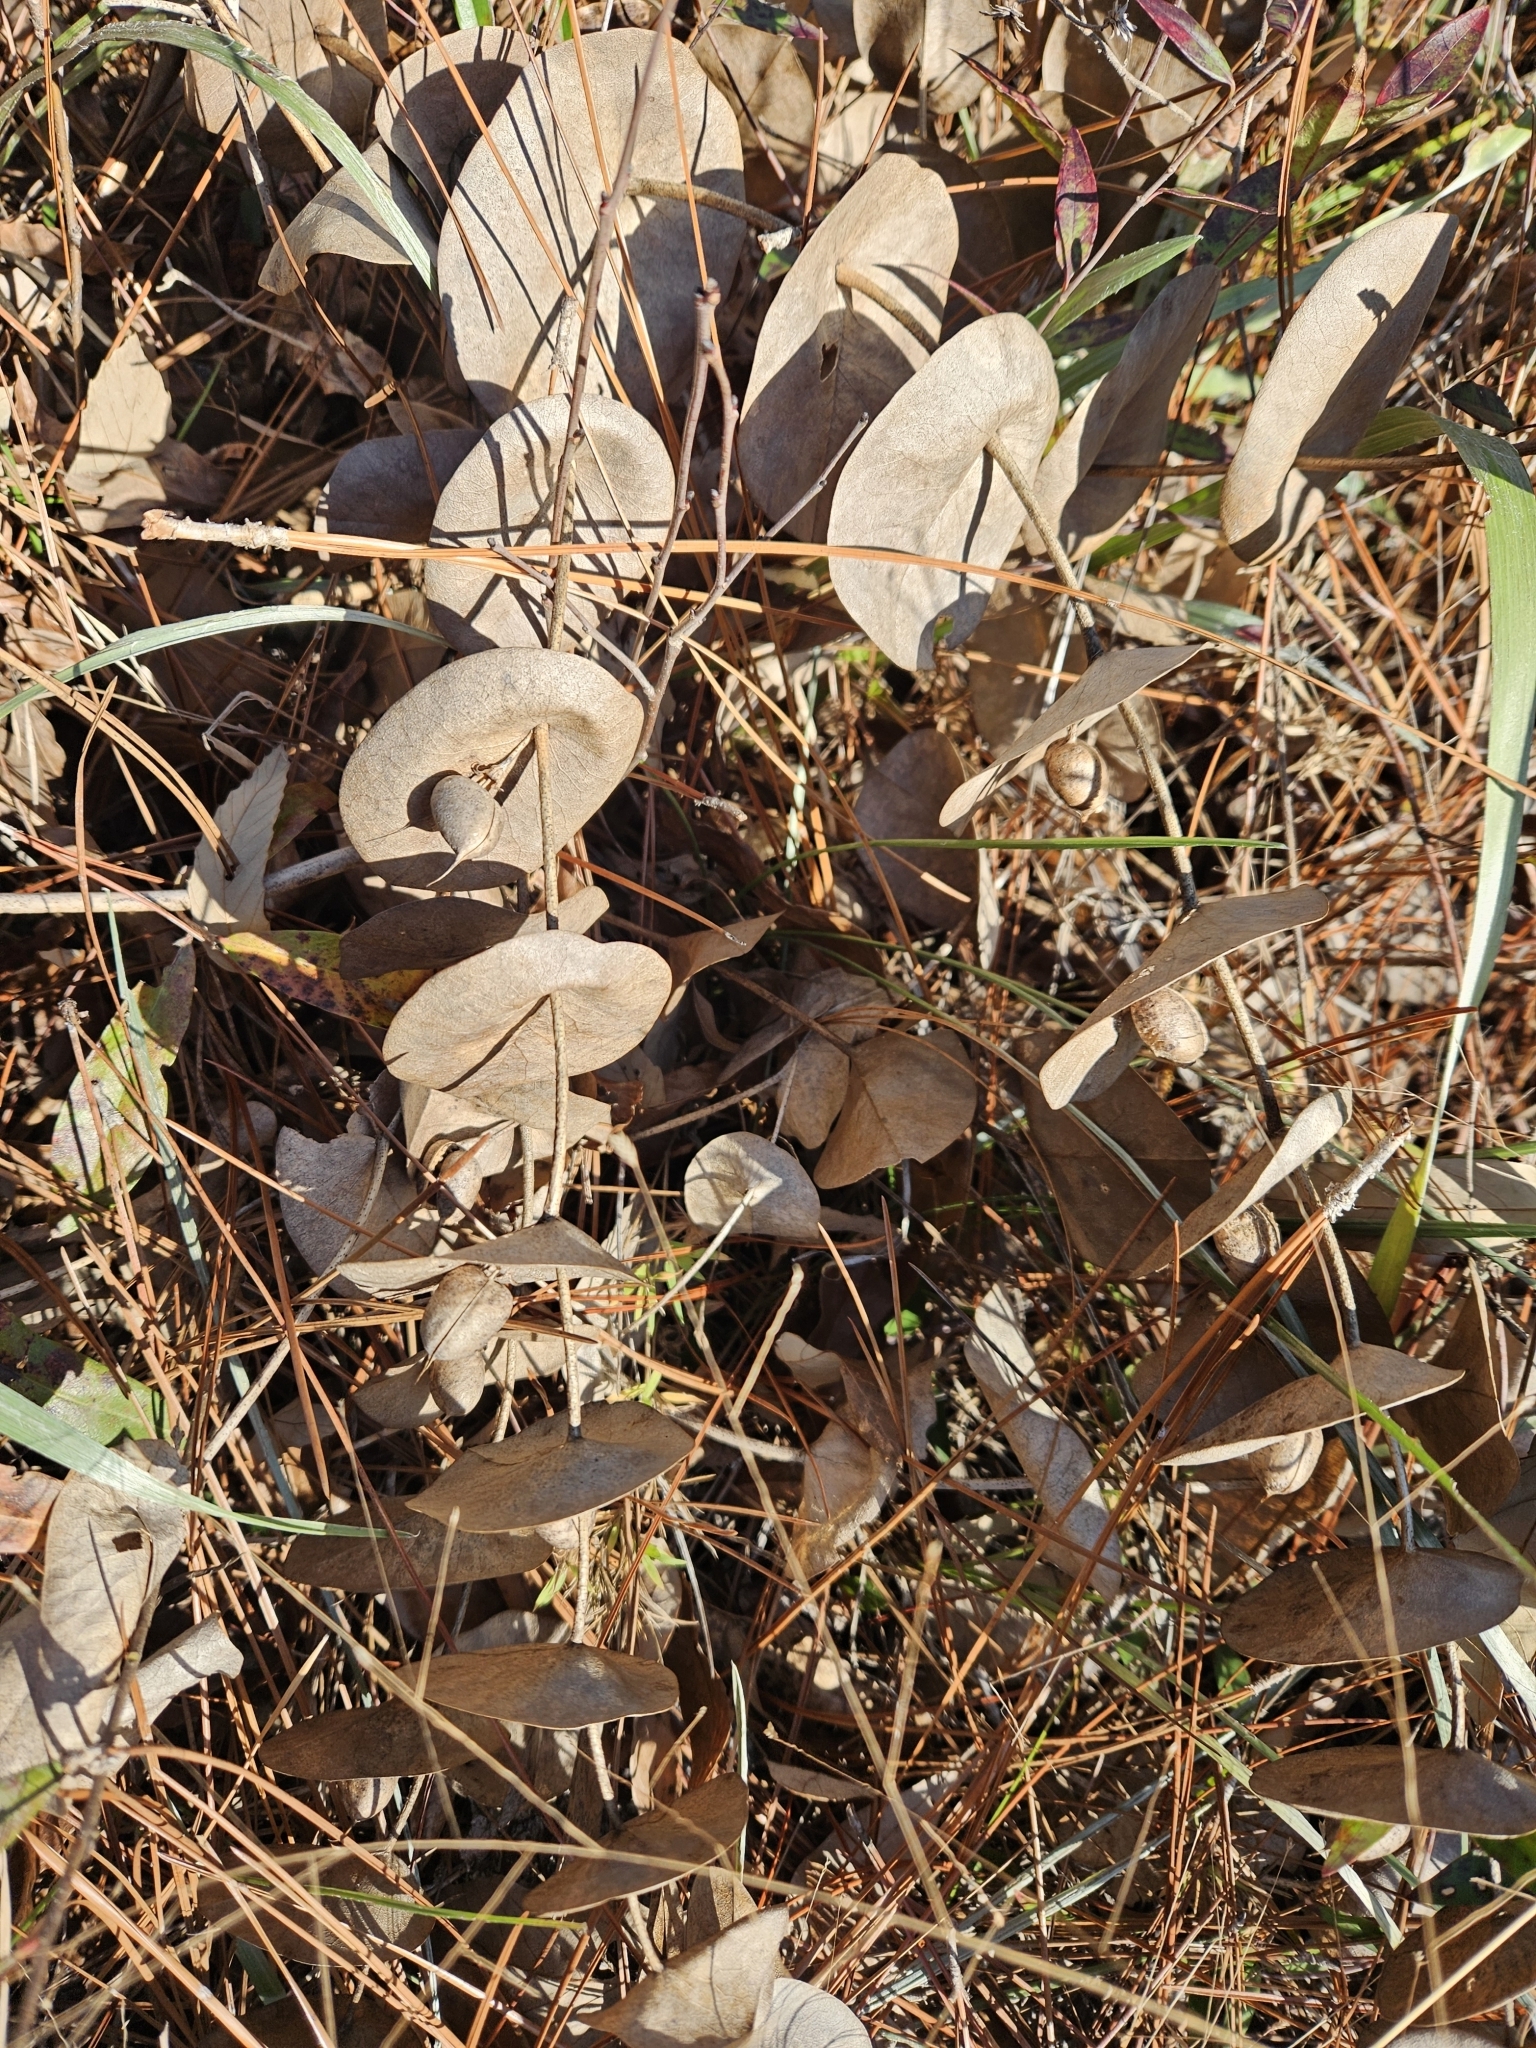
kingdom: Plantae
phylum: Tracheophyta
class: Magnoliopsida
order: Fabales
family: Fabaceae
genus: Baptisia
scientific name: Baptisia perfoliata
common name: Catbells
